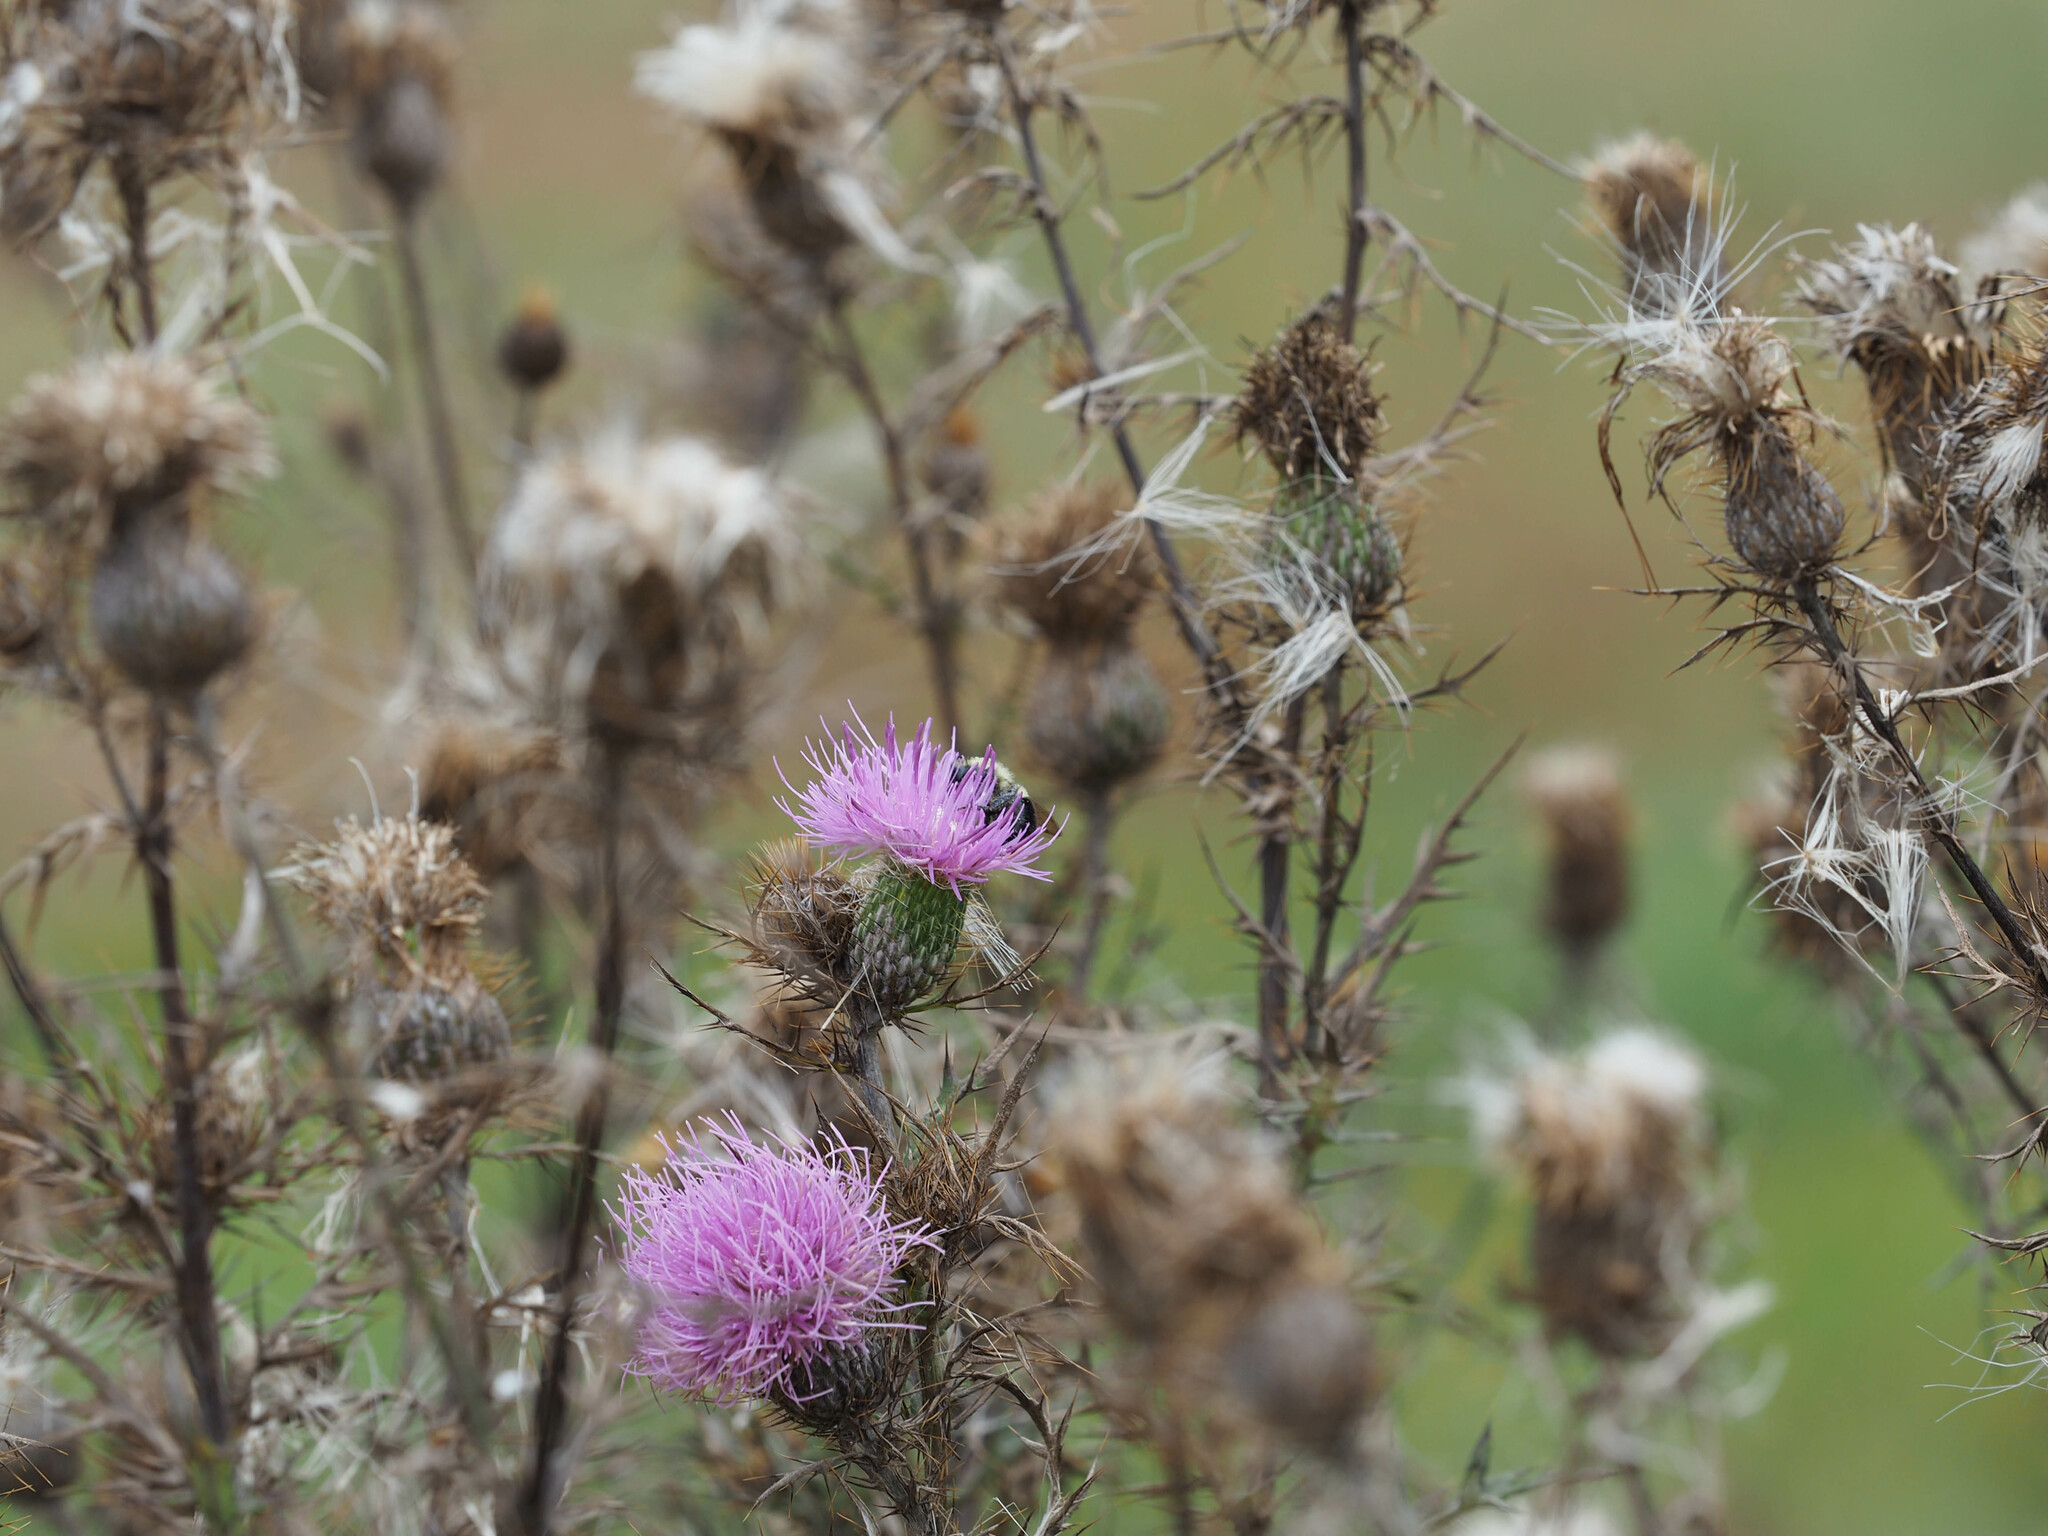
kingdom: Plantae
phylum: Tracheophyta
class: Magnoliopsida
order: Asterales
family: Asteraceae
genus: Cirsium
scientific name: Cirsium discolor
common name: Field thistle
